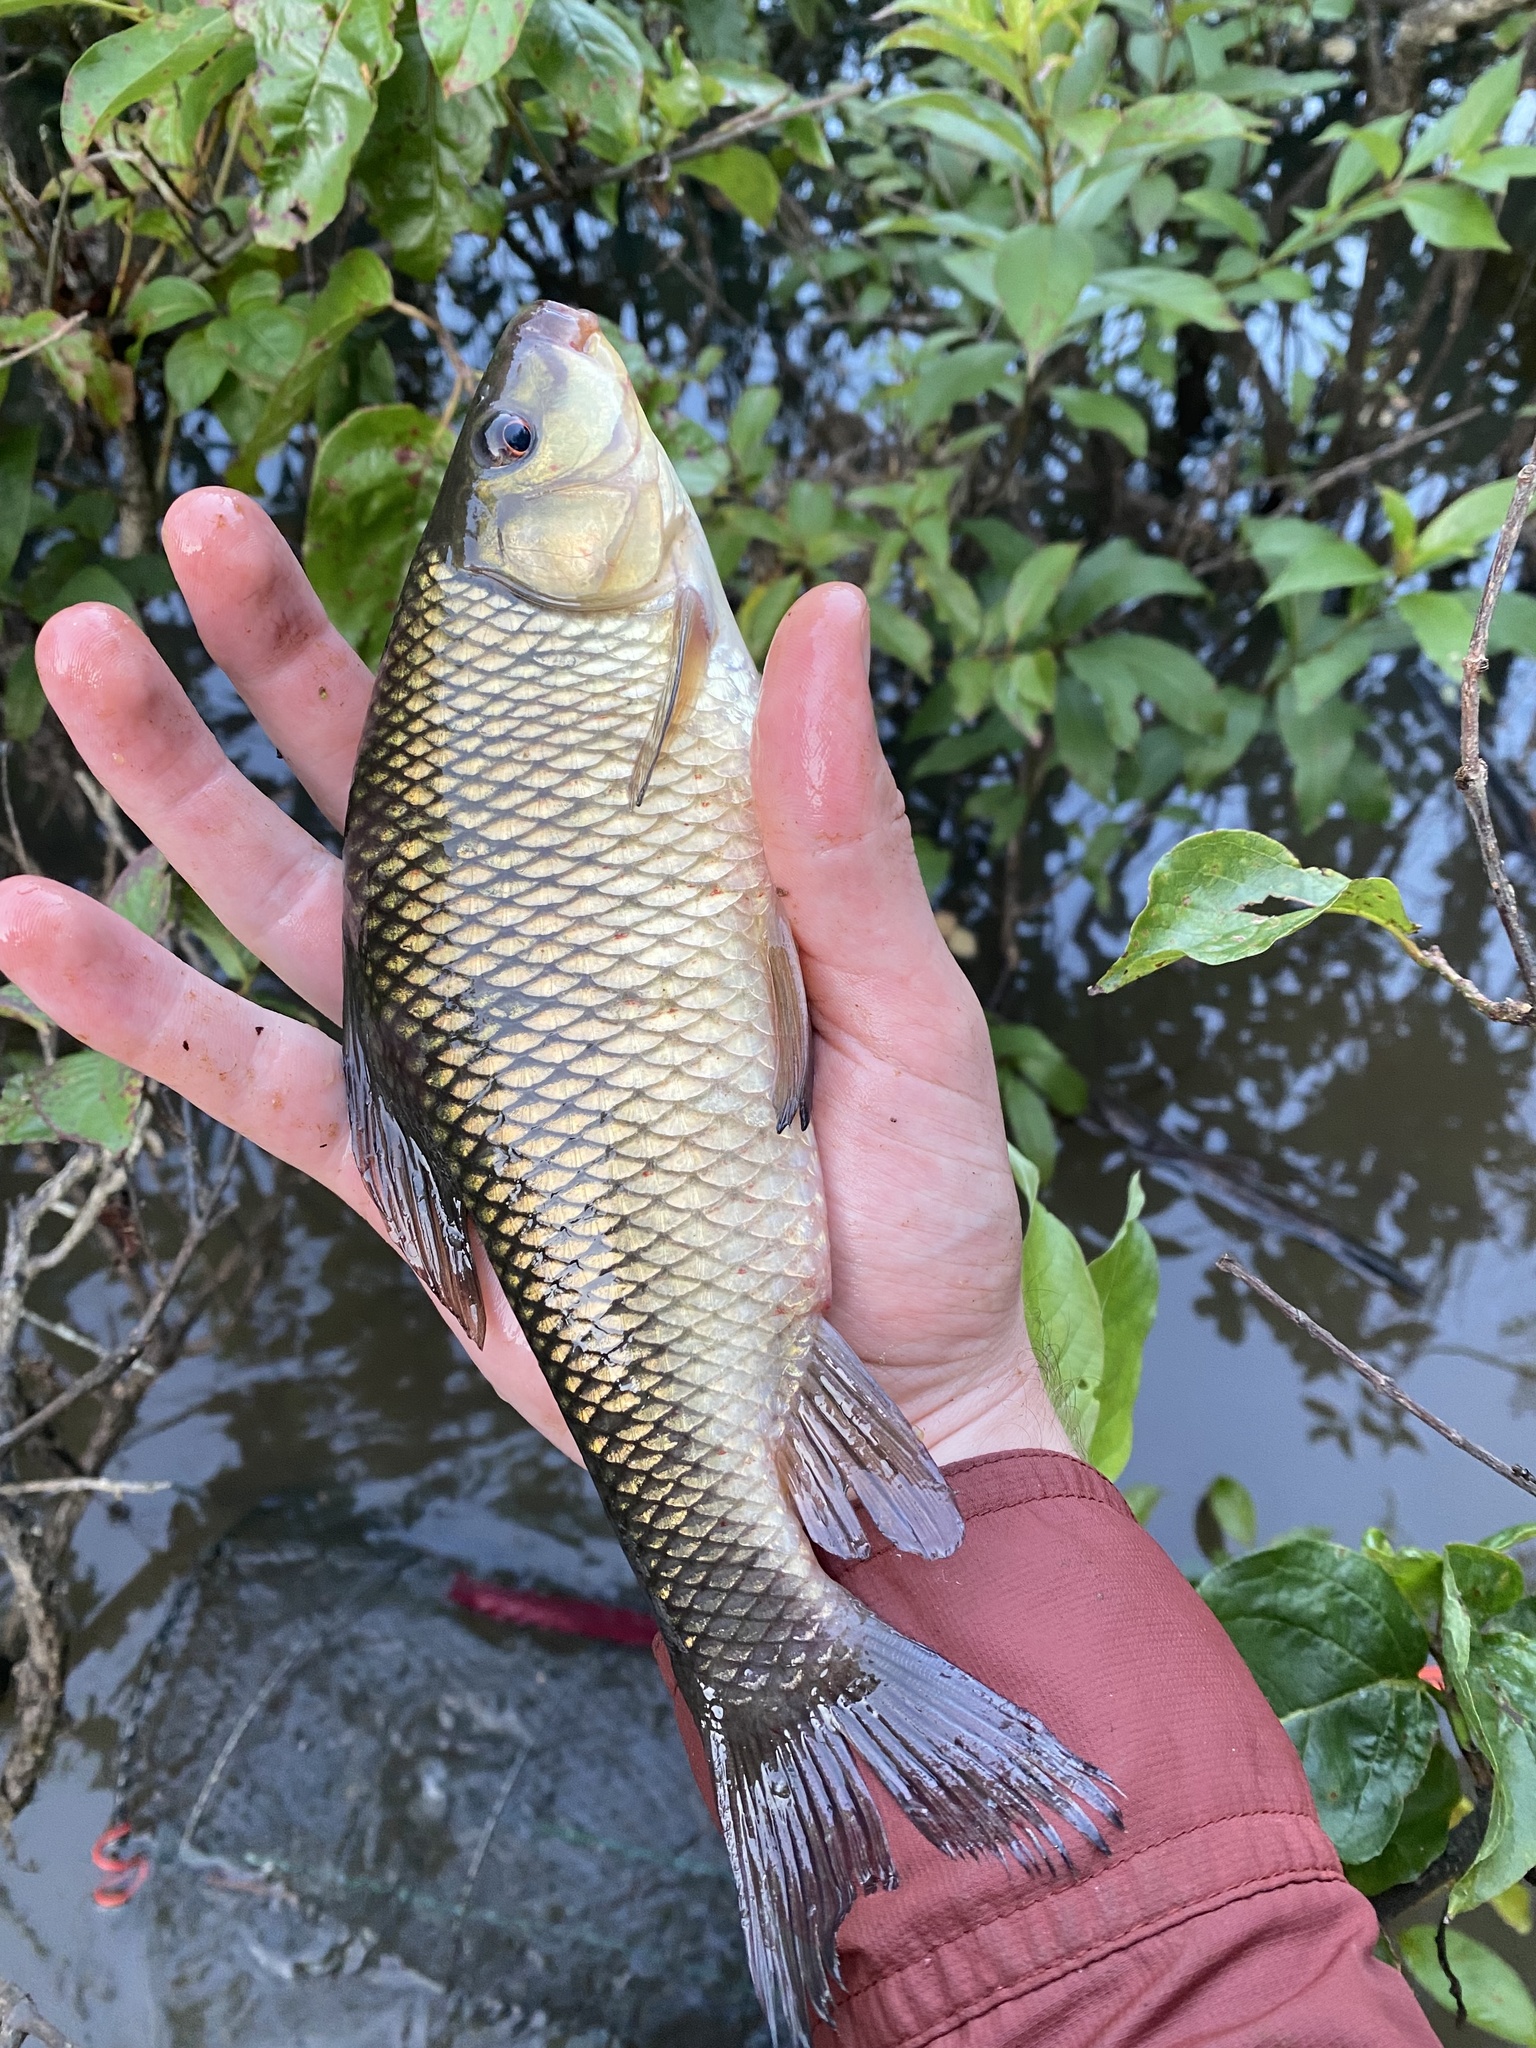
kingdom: Animalia
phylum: Chordata
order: Cypriniformes
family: Catostomidae
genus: Erimyzon
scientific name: Erimyzon sucetta
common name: Lake chubsucker
